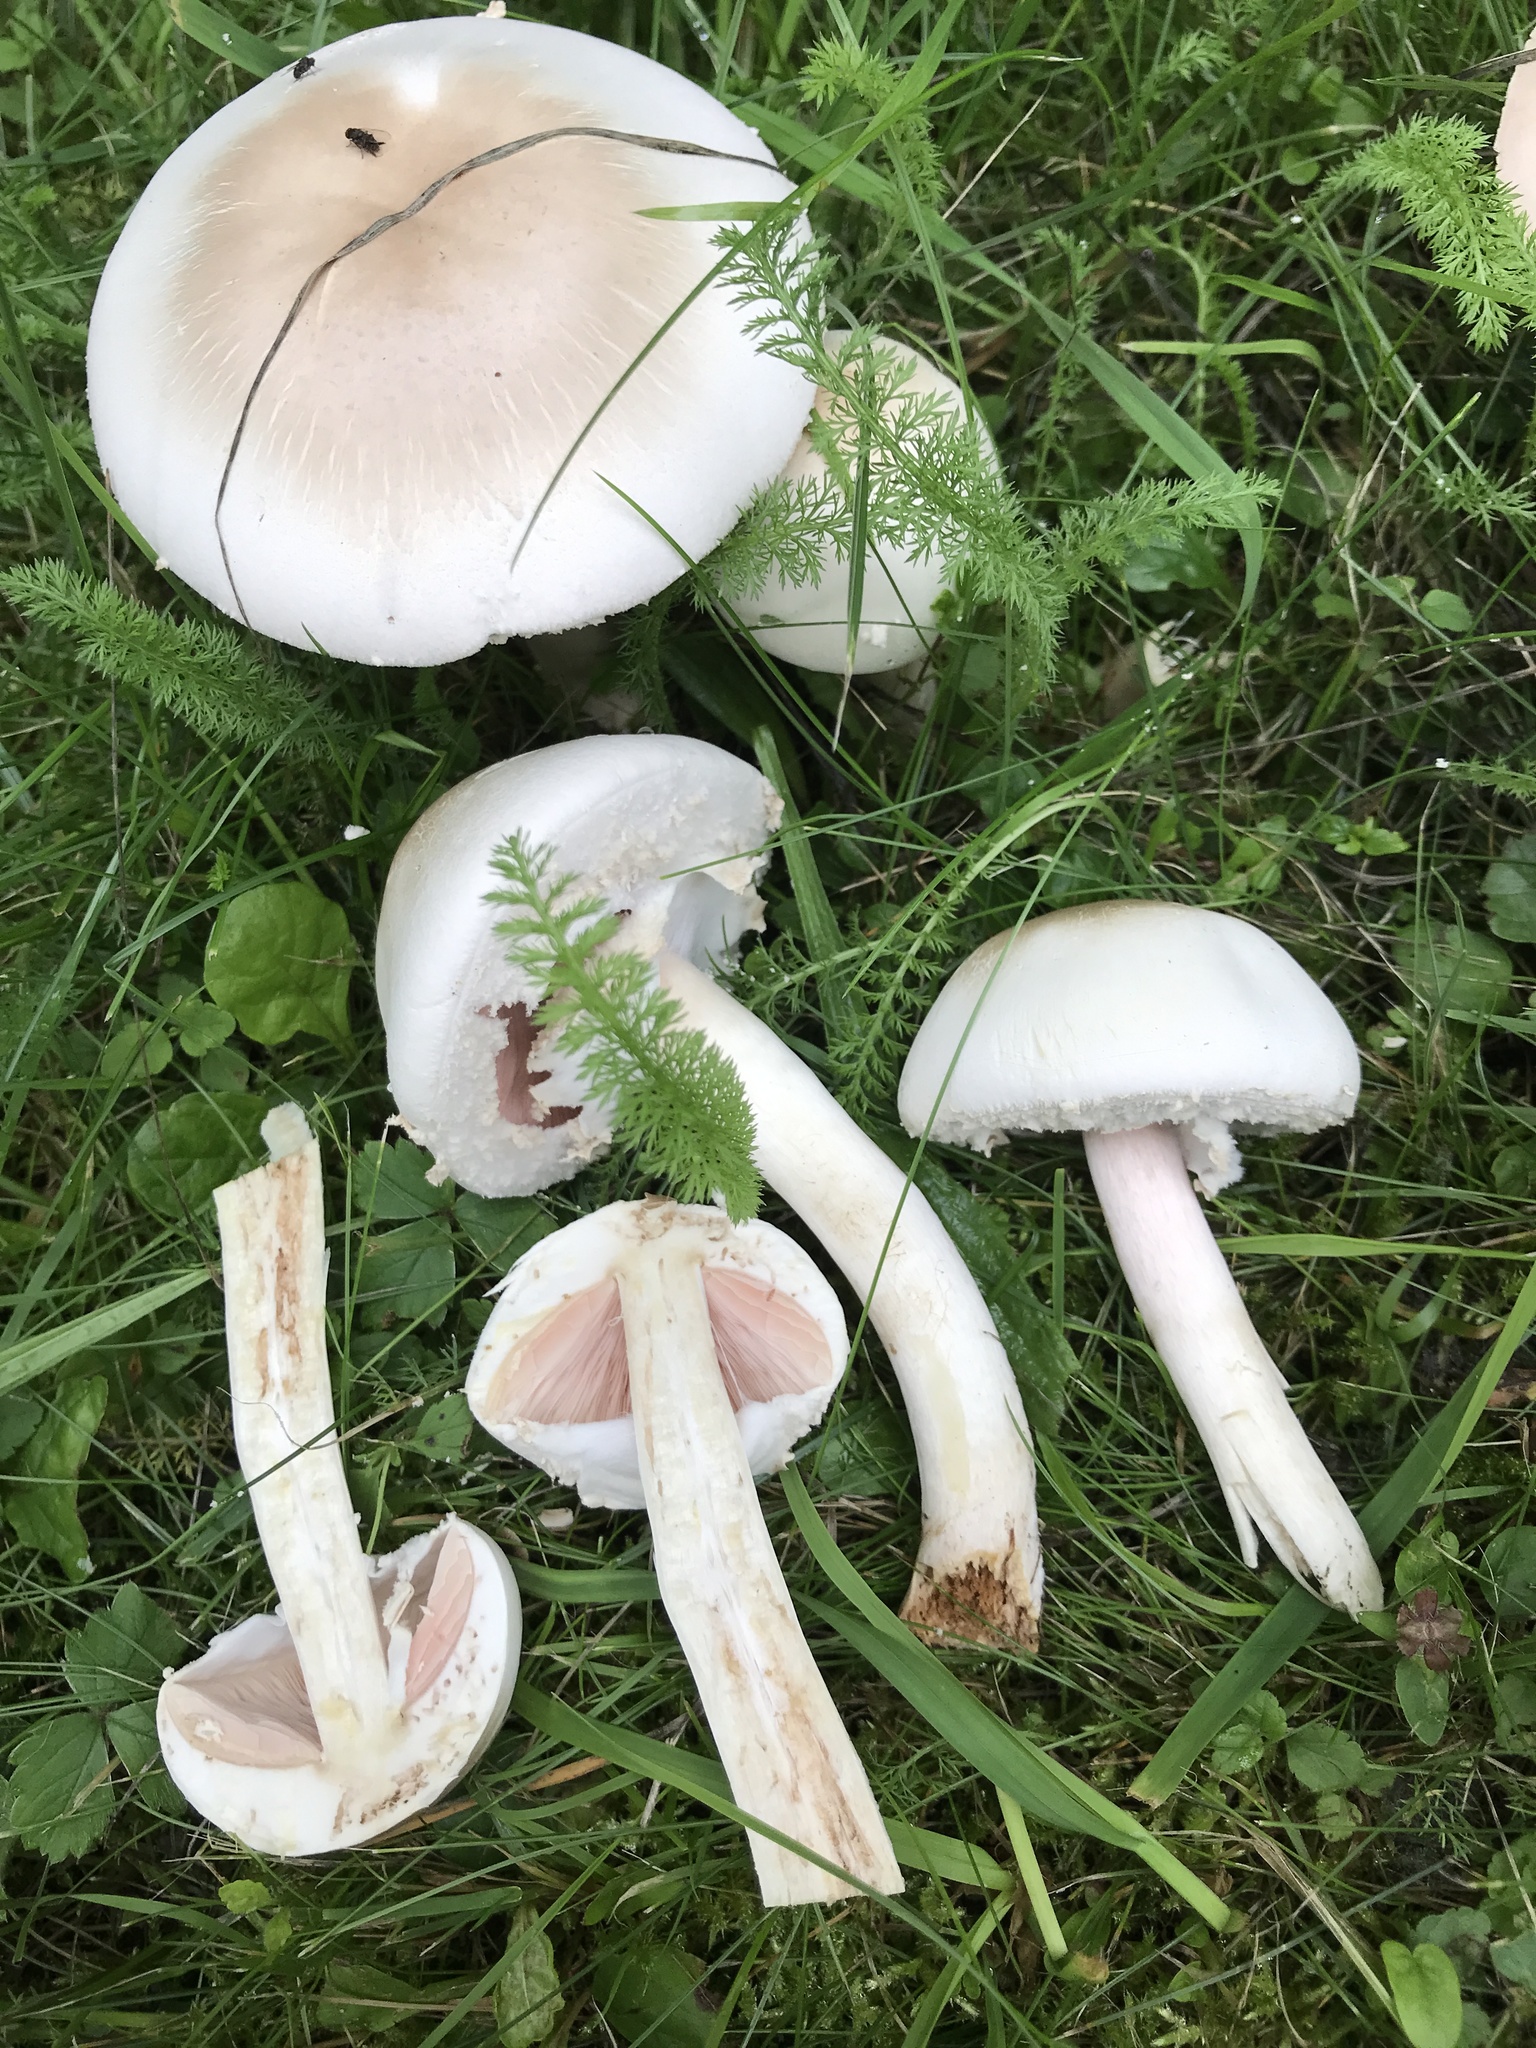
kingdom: Fungi
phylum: Basidiomycota
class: Agaricomycetes
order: Agaricales
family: Agaricaceae
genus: Agaricus
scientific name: Agaricus xanthodermus
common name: Yellow stainer
